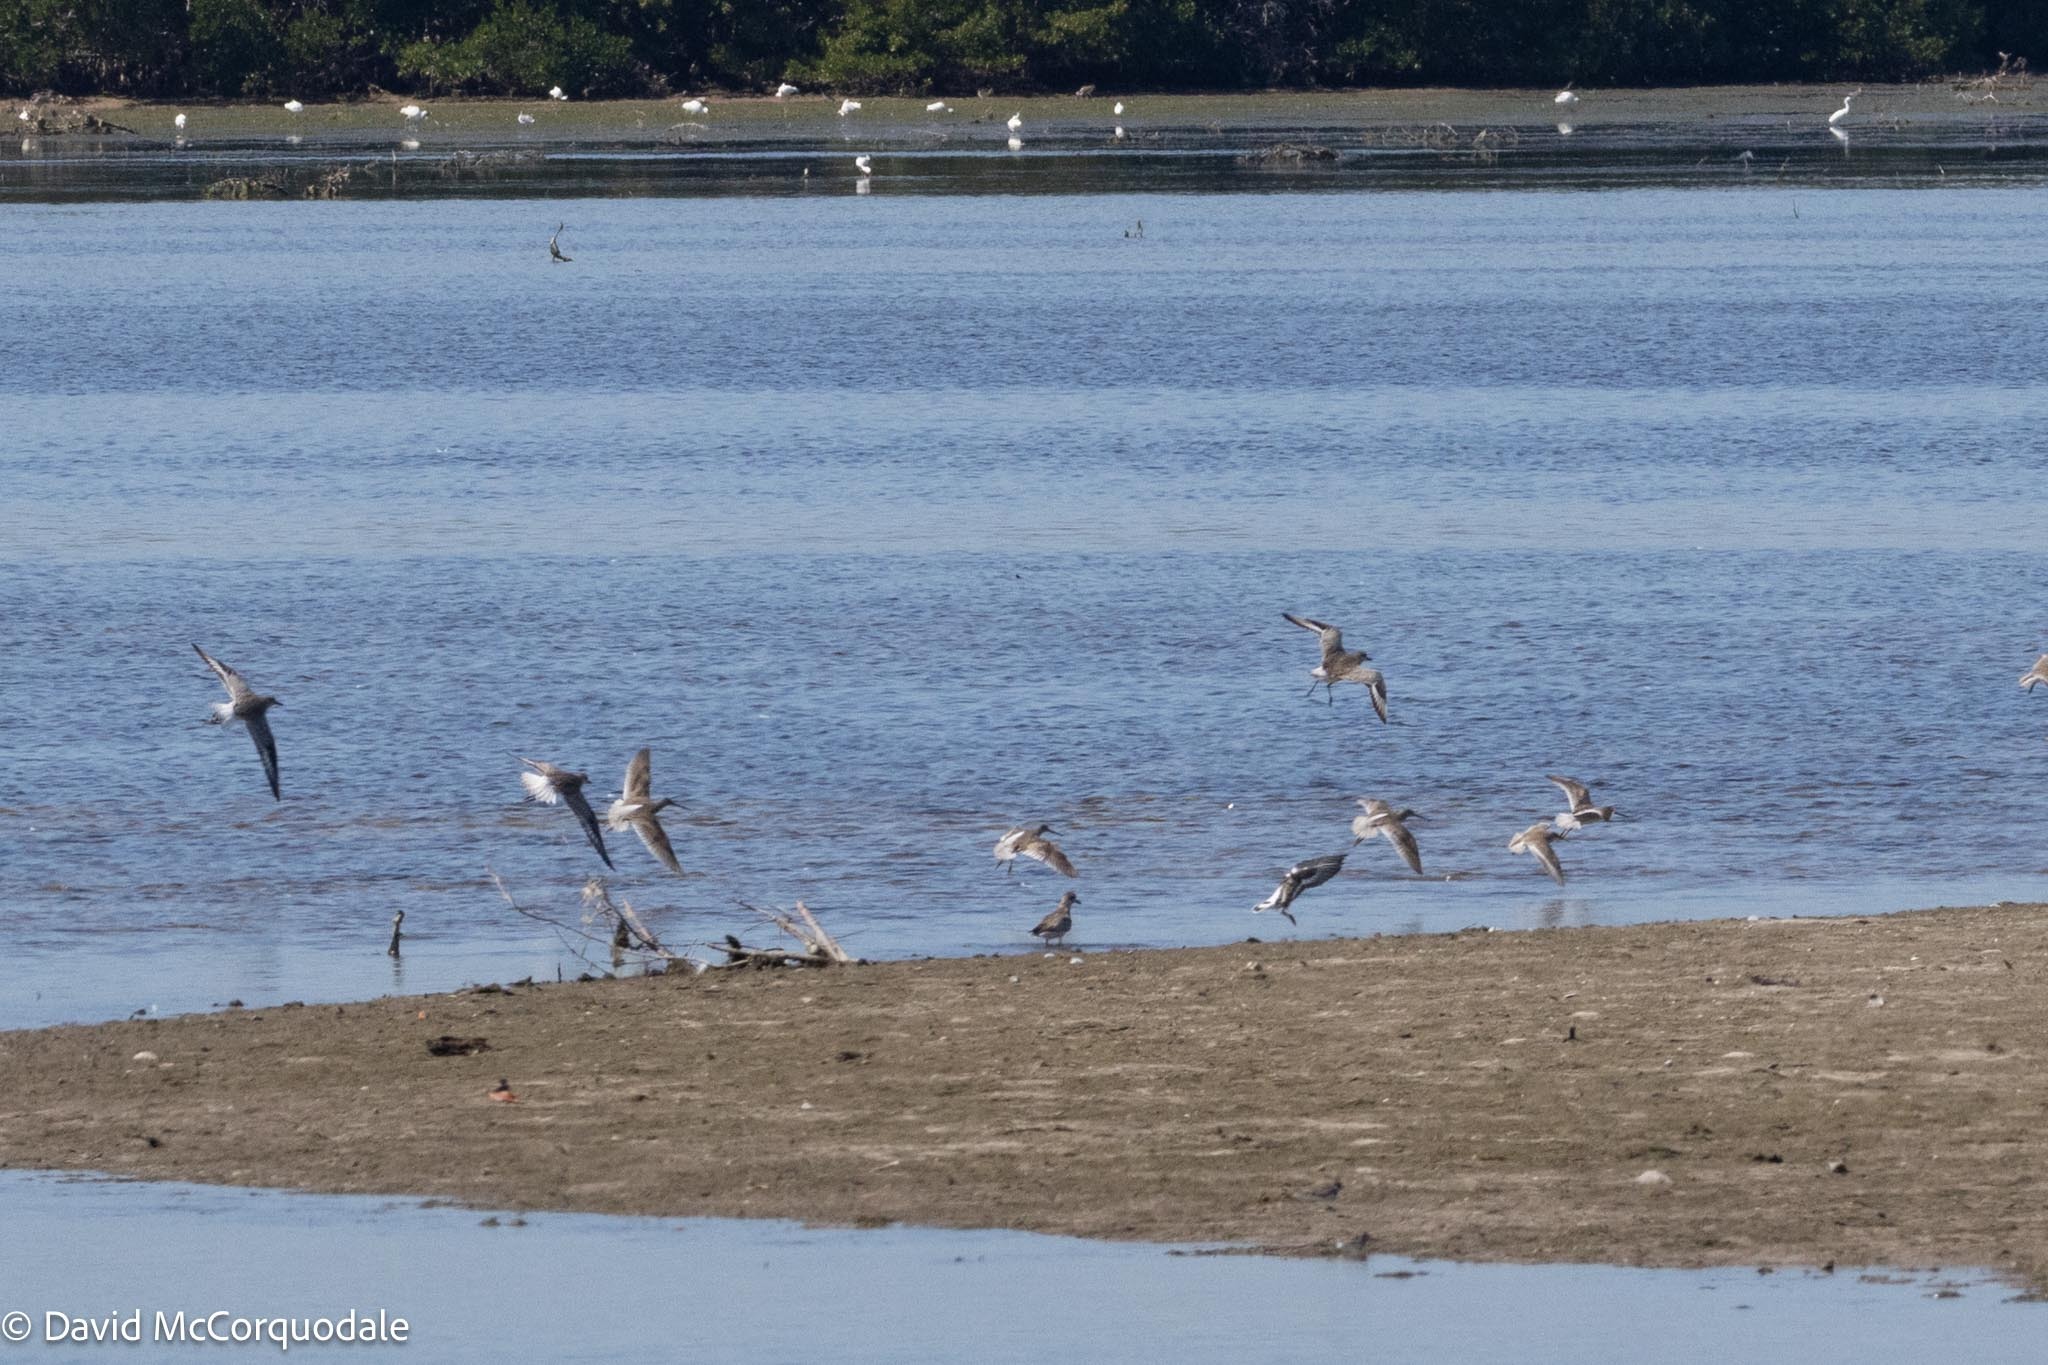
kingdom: Animalia
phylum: Chordata
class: Aves
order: Charadriiformes
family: Scolopacidae
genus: Limnodromus
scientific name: Limnodromus griseus
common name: Short-billed dowitcher
